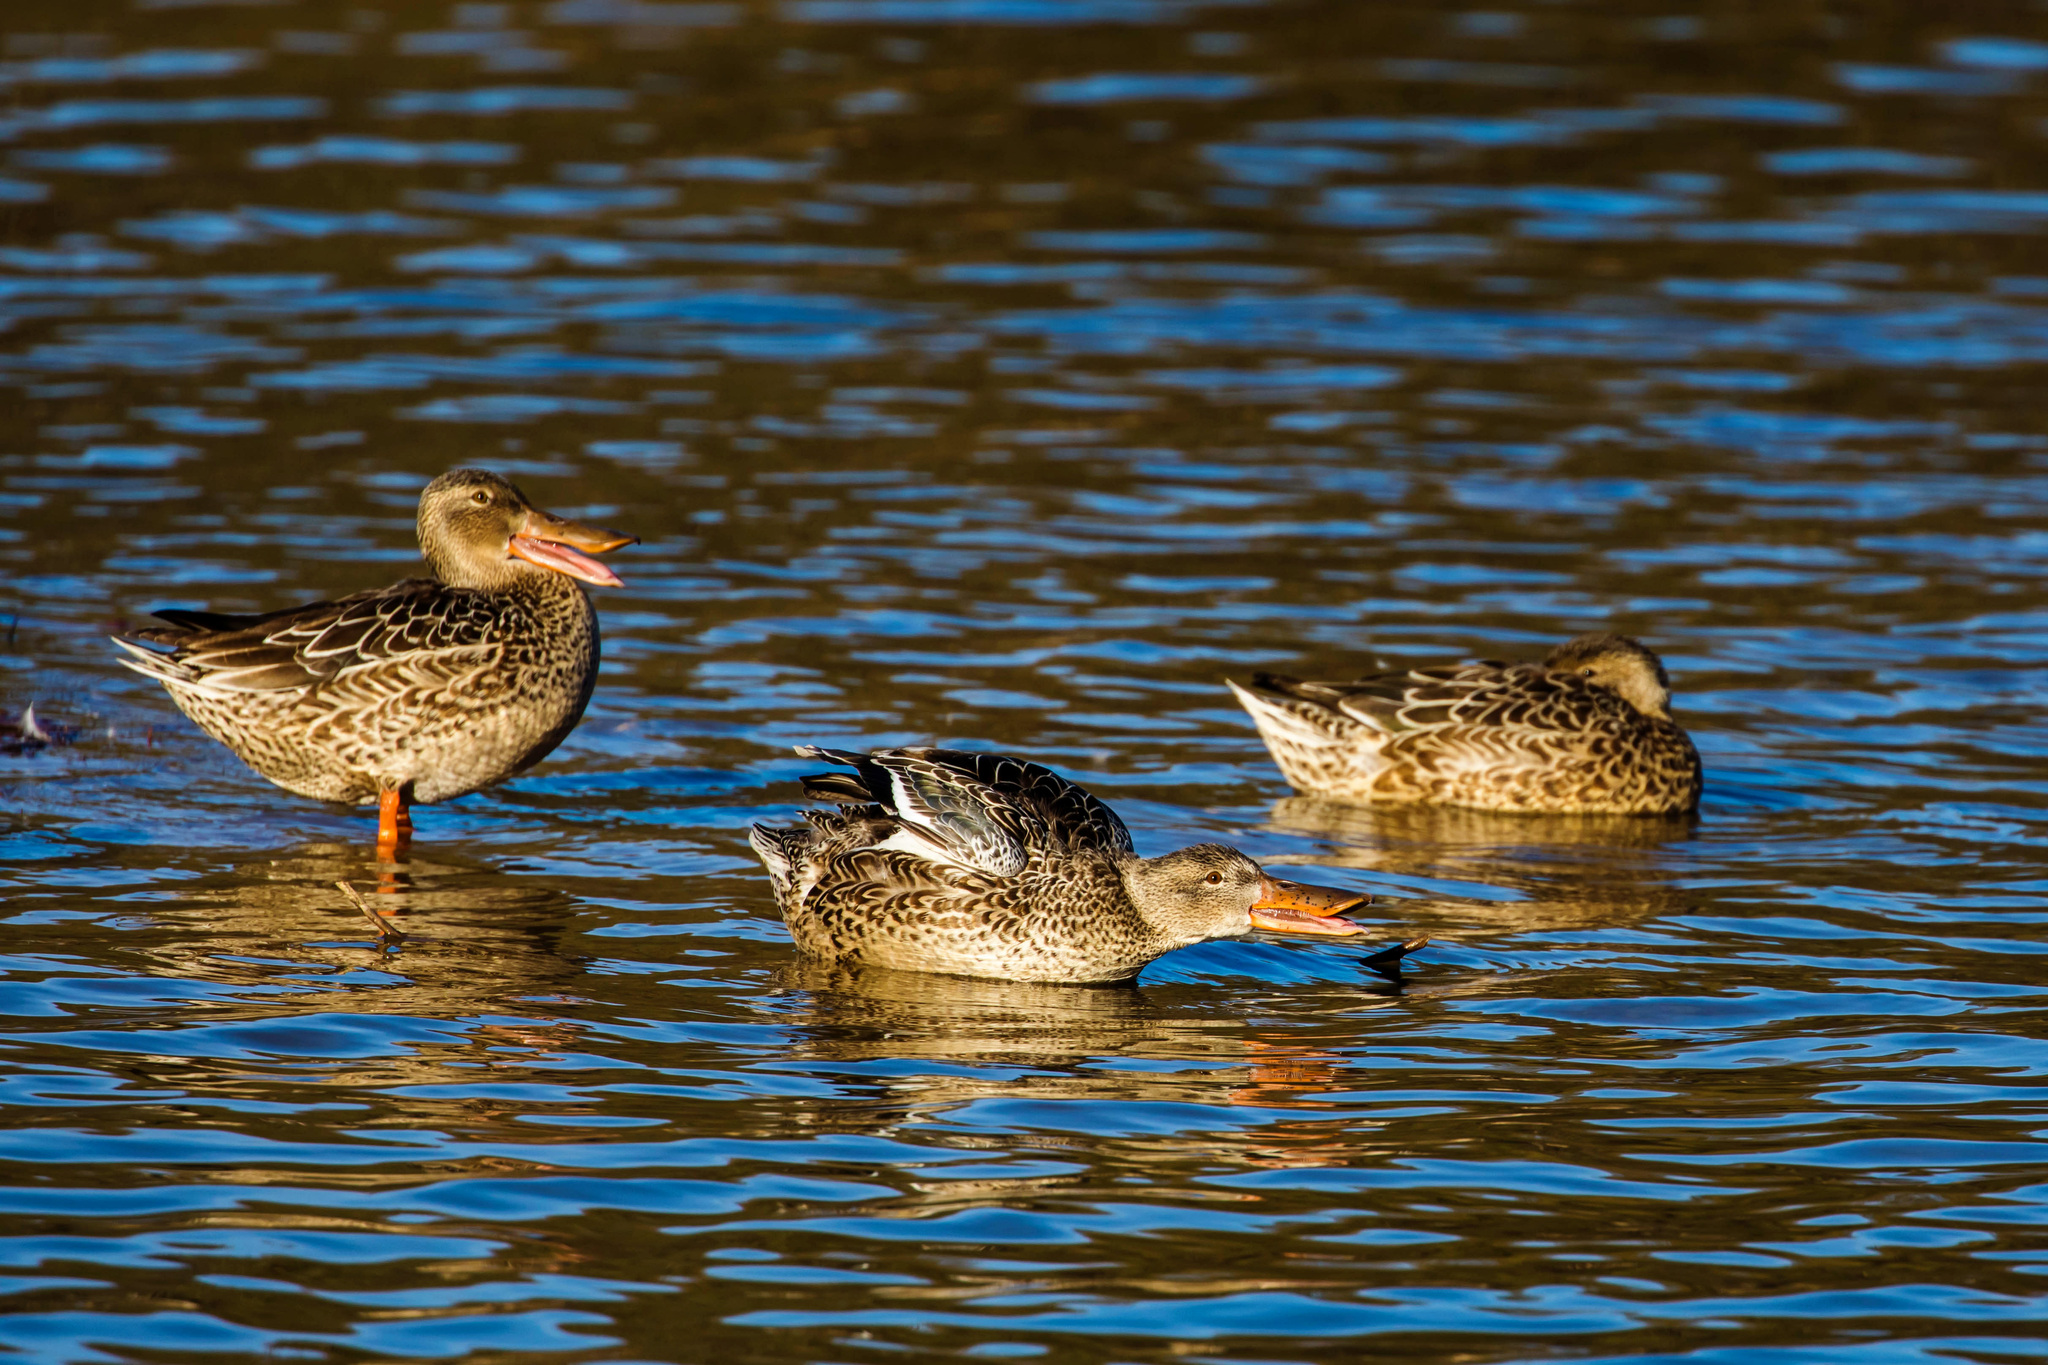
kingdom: Animalia
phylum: Chordata
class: Aves
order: Anseriformes
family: Anatidae
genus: Spatula
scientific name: Spatula clypeata
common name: Northern shoveler
